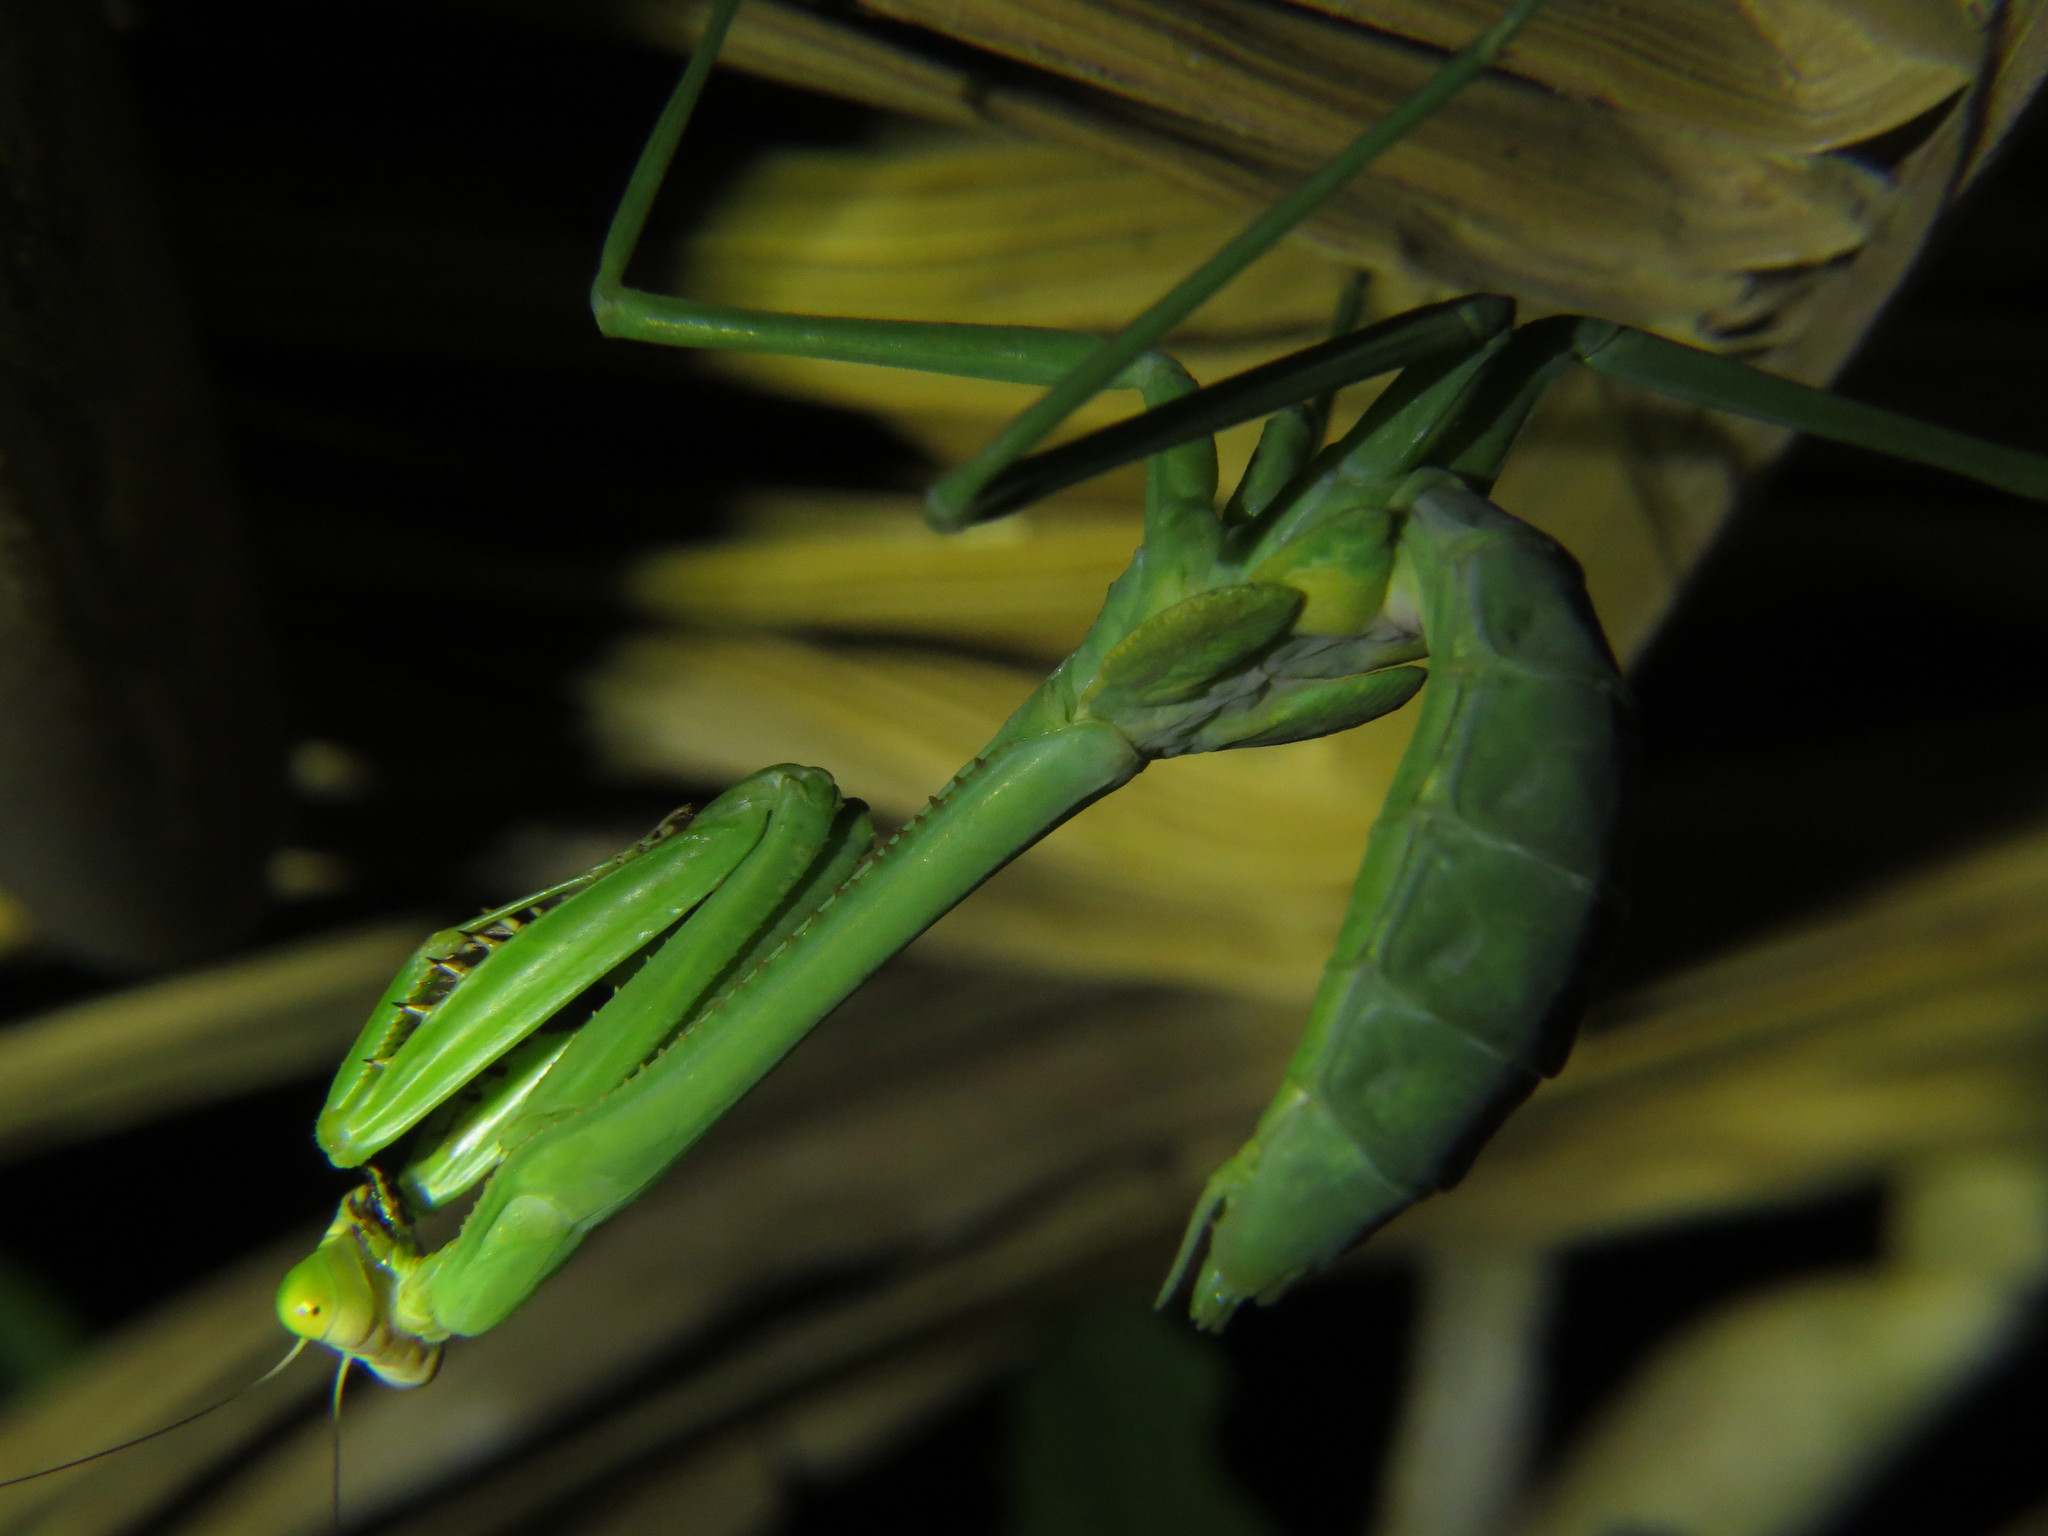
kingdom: Animalia
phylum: Arthropoda
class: Insecta
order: Mantodea
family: Mantidae
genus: Stagmatoptera
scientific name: Stagmatoptera binotata
